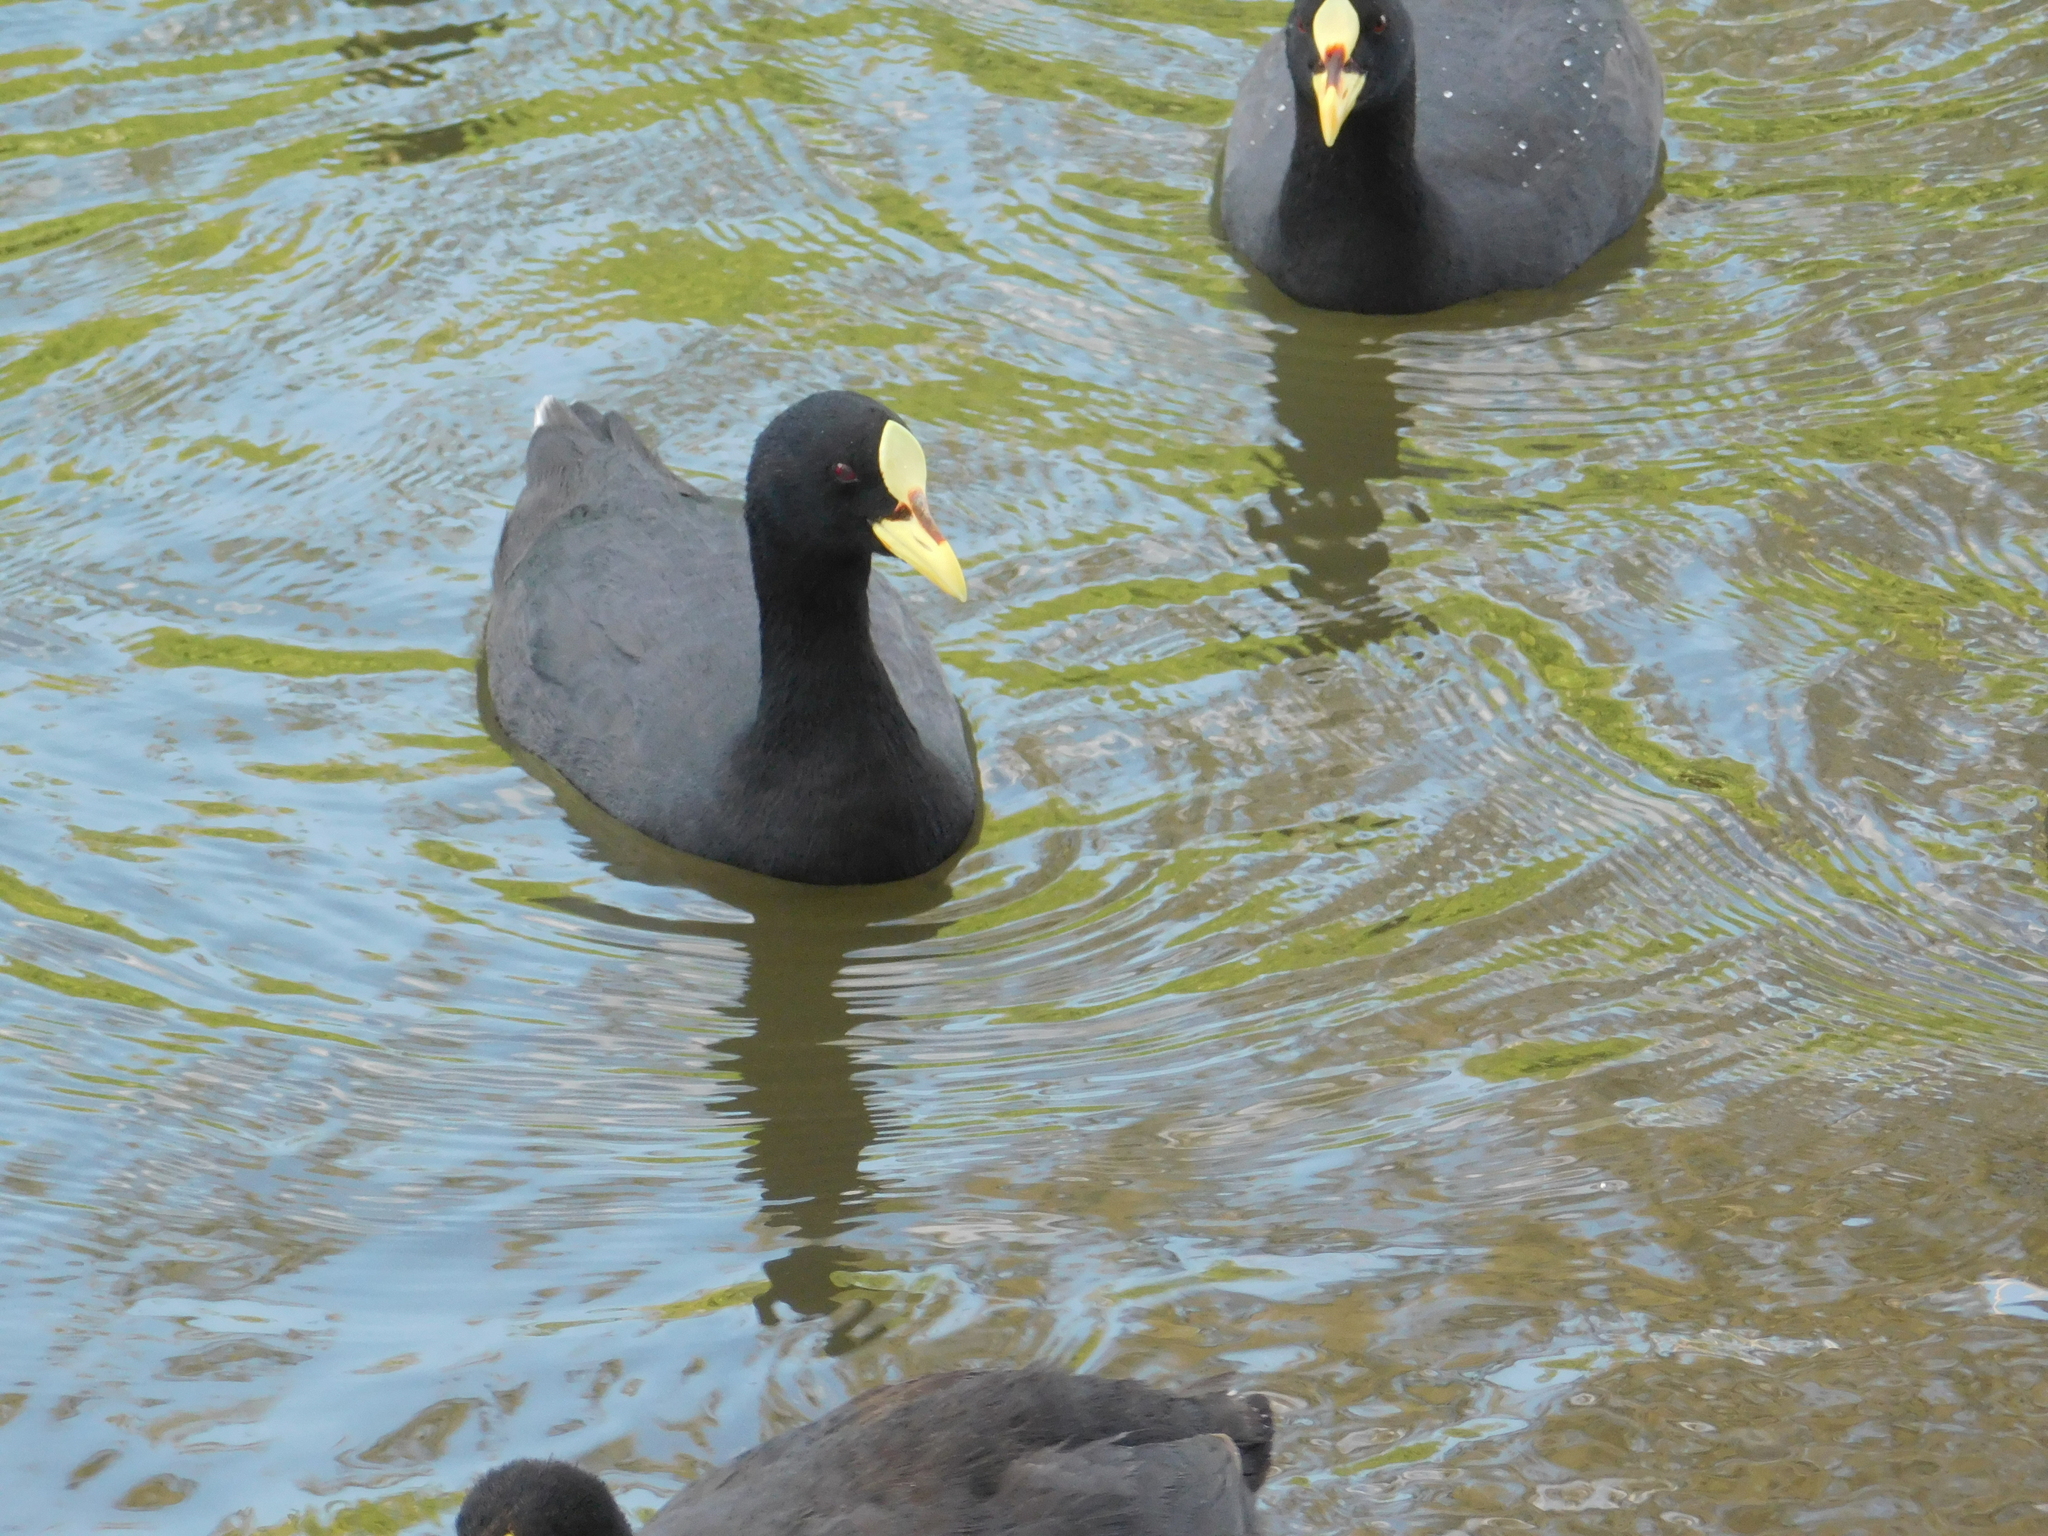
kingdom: Animalia
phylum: Chordata
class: Aves
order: Gruiformes
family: Rallidae
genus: Fulica
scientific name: Fulica armillata
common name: Red-gartered coot
